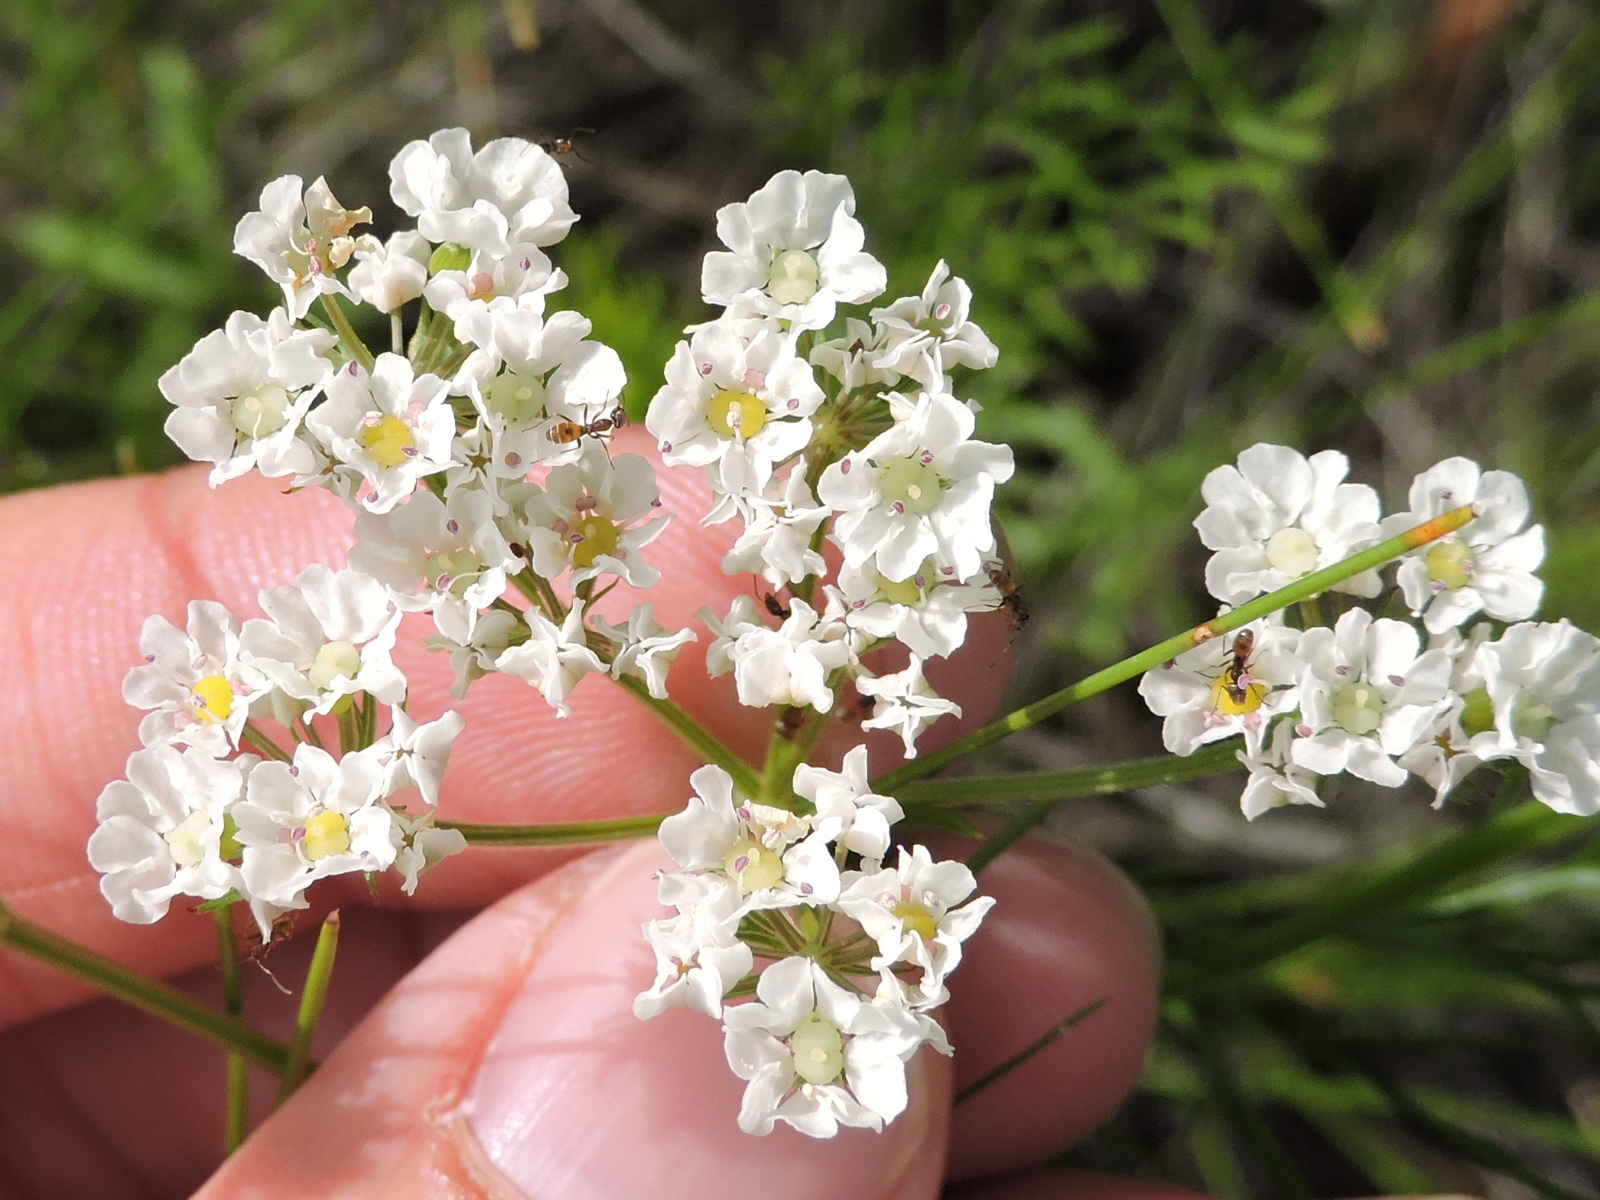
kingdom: Plantae
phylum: Tracheophyta
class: Magnoliopsida
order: Apiales
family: Apiaceae
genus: Atrema
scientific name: Atrema americanum
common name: Prairie-bishop
